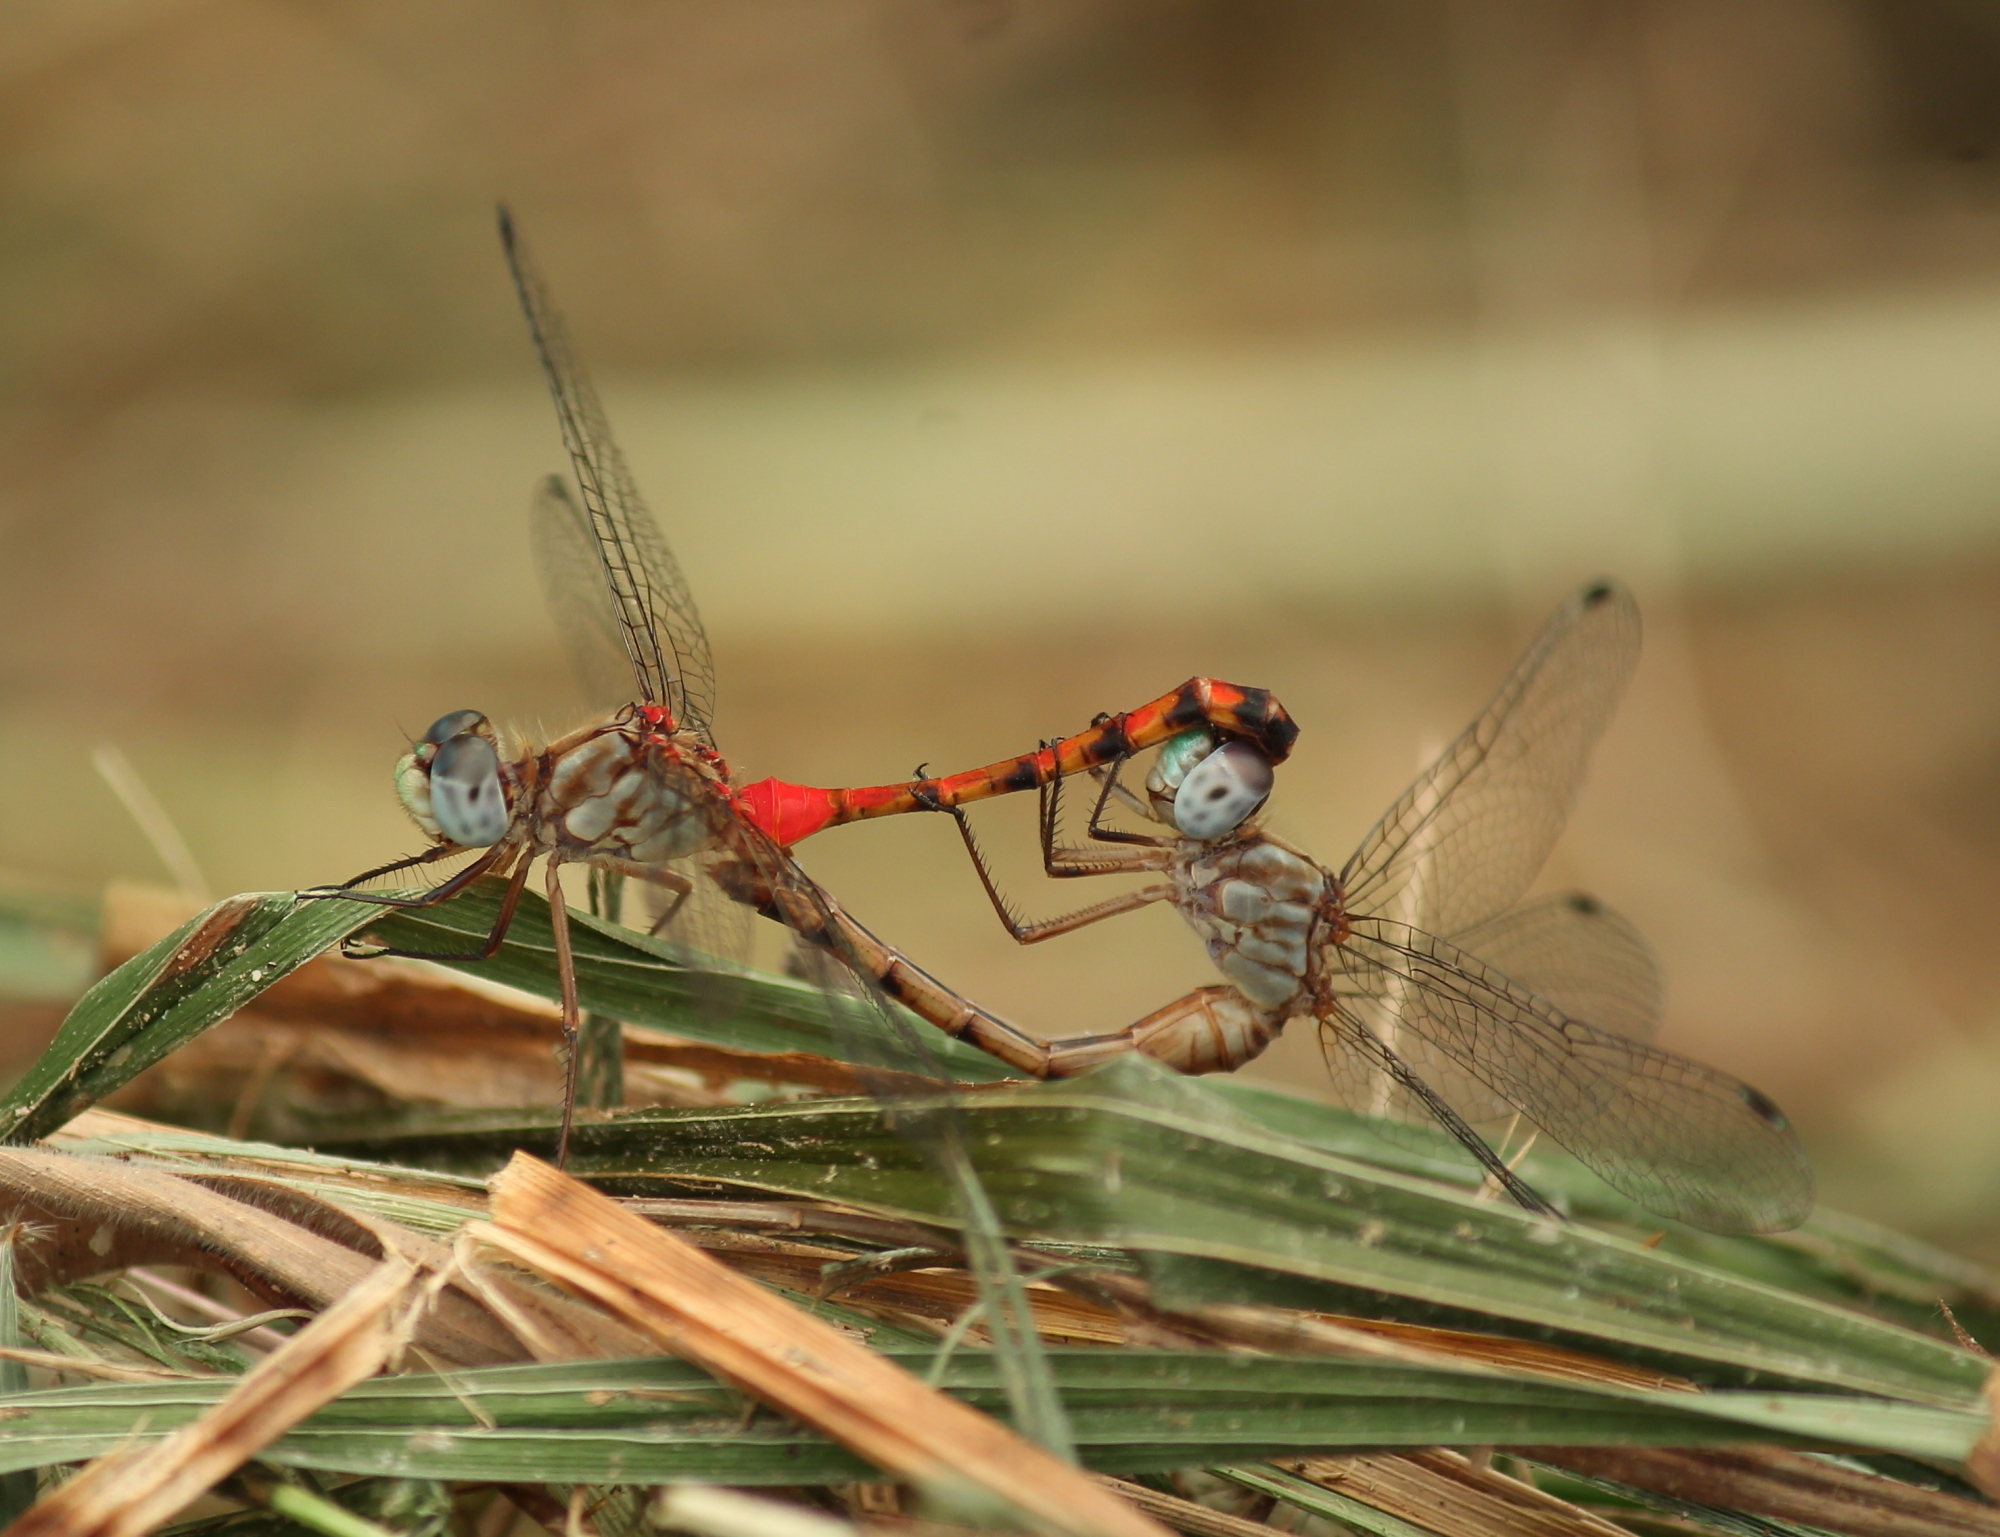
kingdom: Animalia
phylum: Arthropoda
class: Insecta
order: Odonata
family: Libellulidae
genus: Sympetrum
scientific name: Sympetrum ambiguum
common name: Blue-faced meadowhawk
